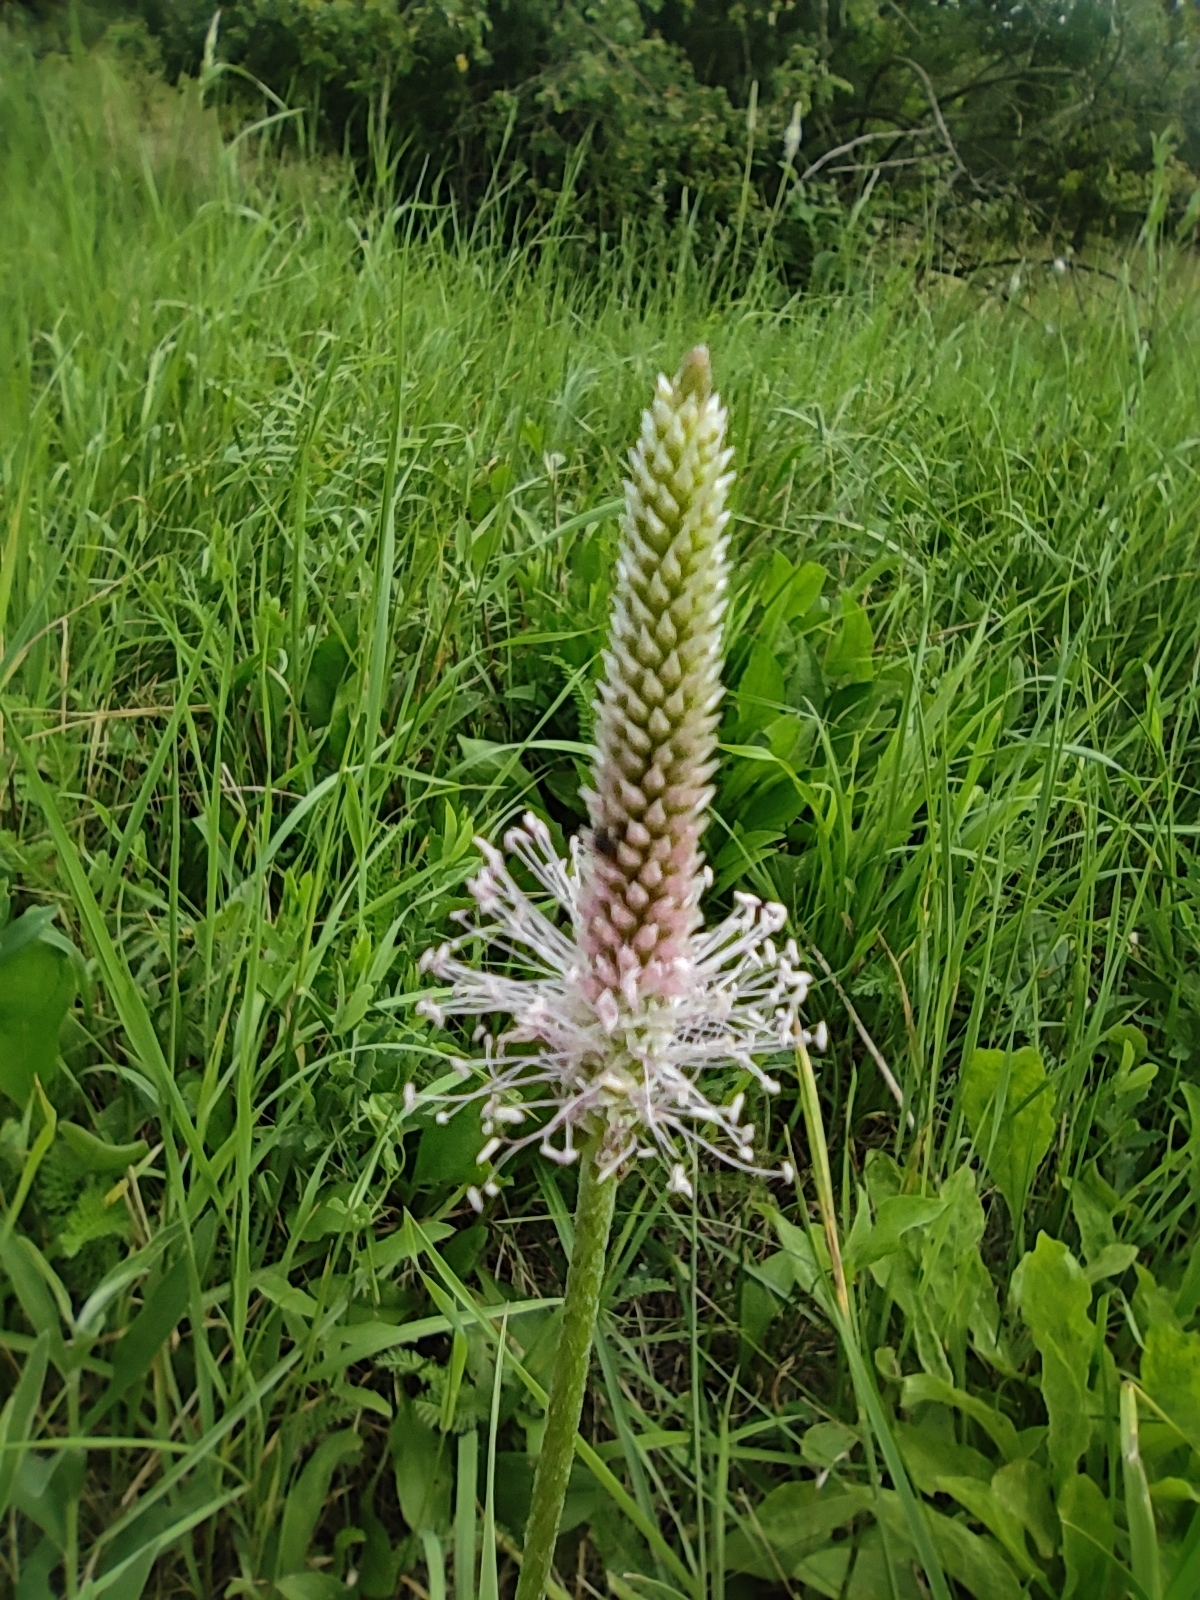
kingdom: Plantae
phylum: Tracheophyta
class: Magnoliopsida
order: Lamiales
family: Plantaginaceae
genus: Plantago
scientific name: Plantago media
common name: Hoary plantain
